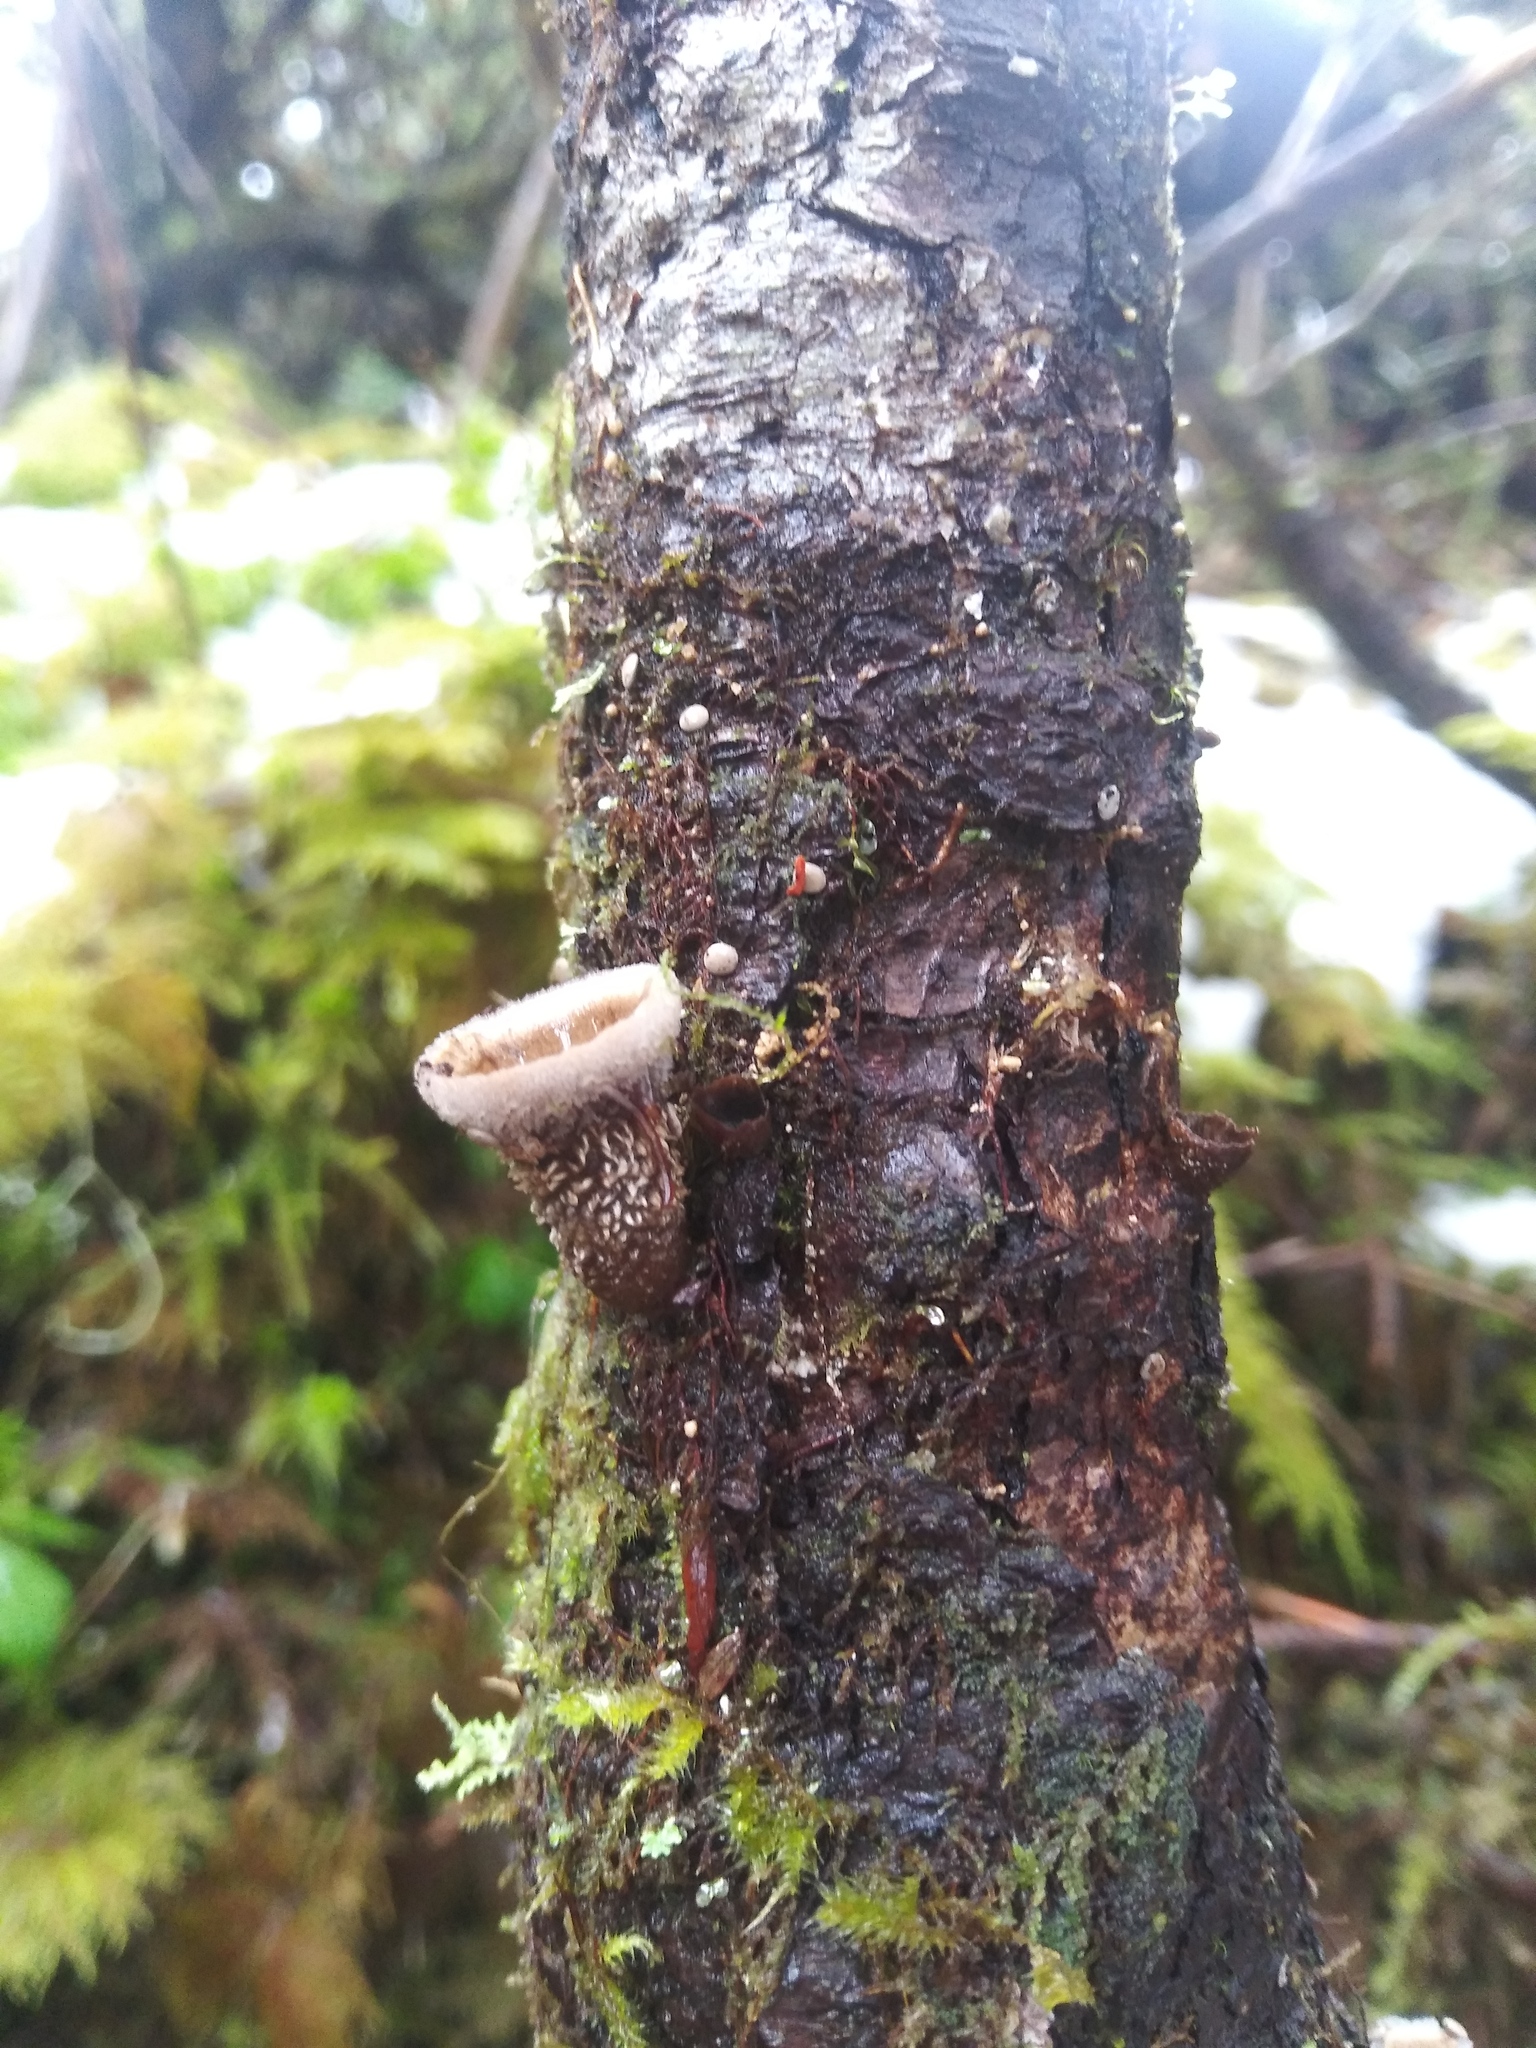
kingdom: Fungi
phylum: Basidiomycota
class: Agaricomycetes
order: Agaricales
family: Agaricaceae
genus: Nidula
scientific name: Nidula candida
